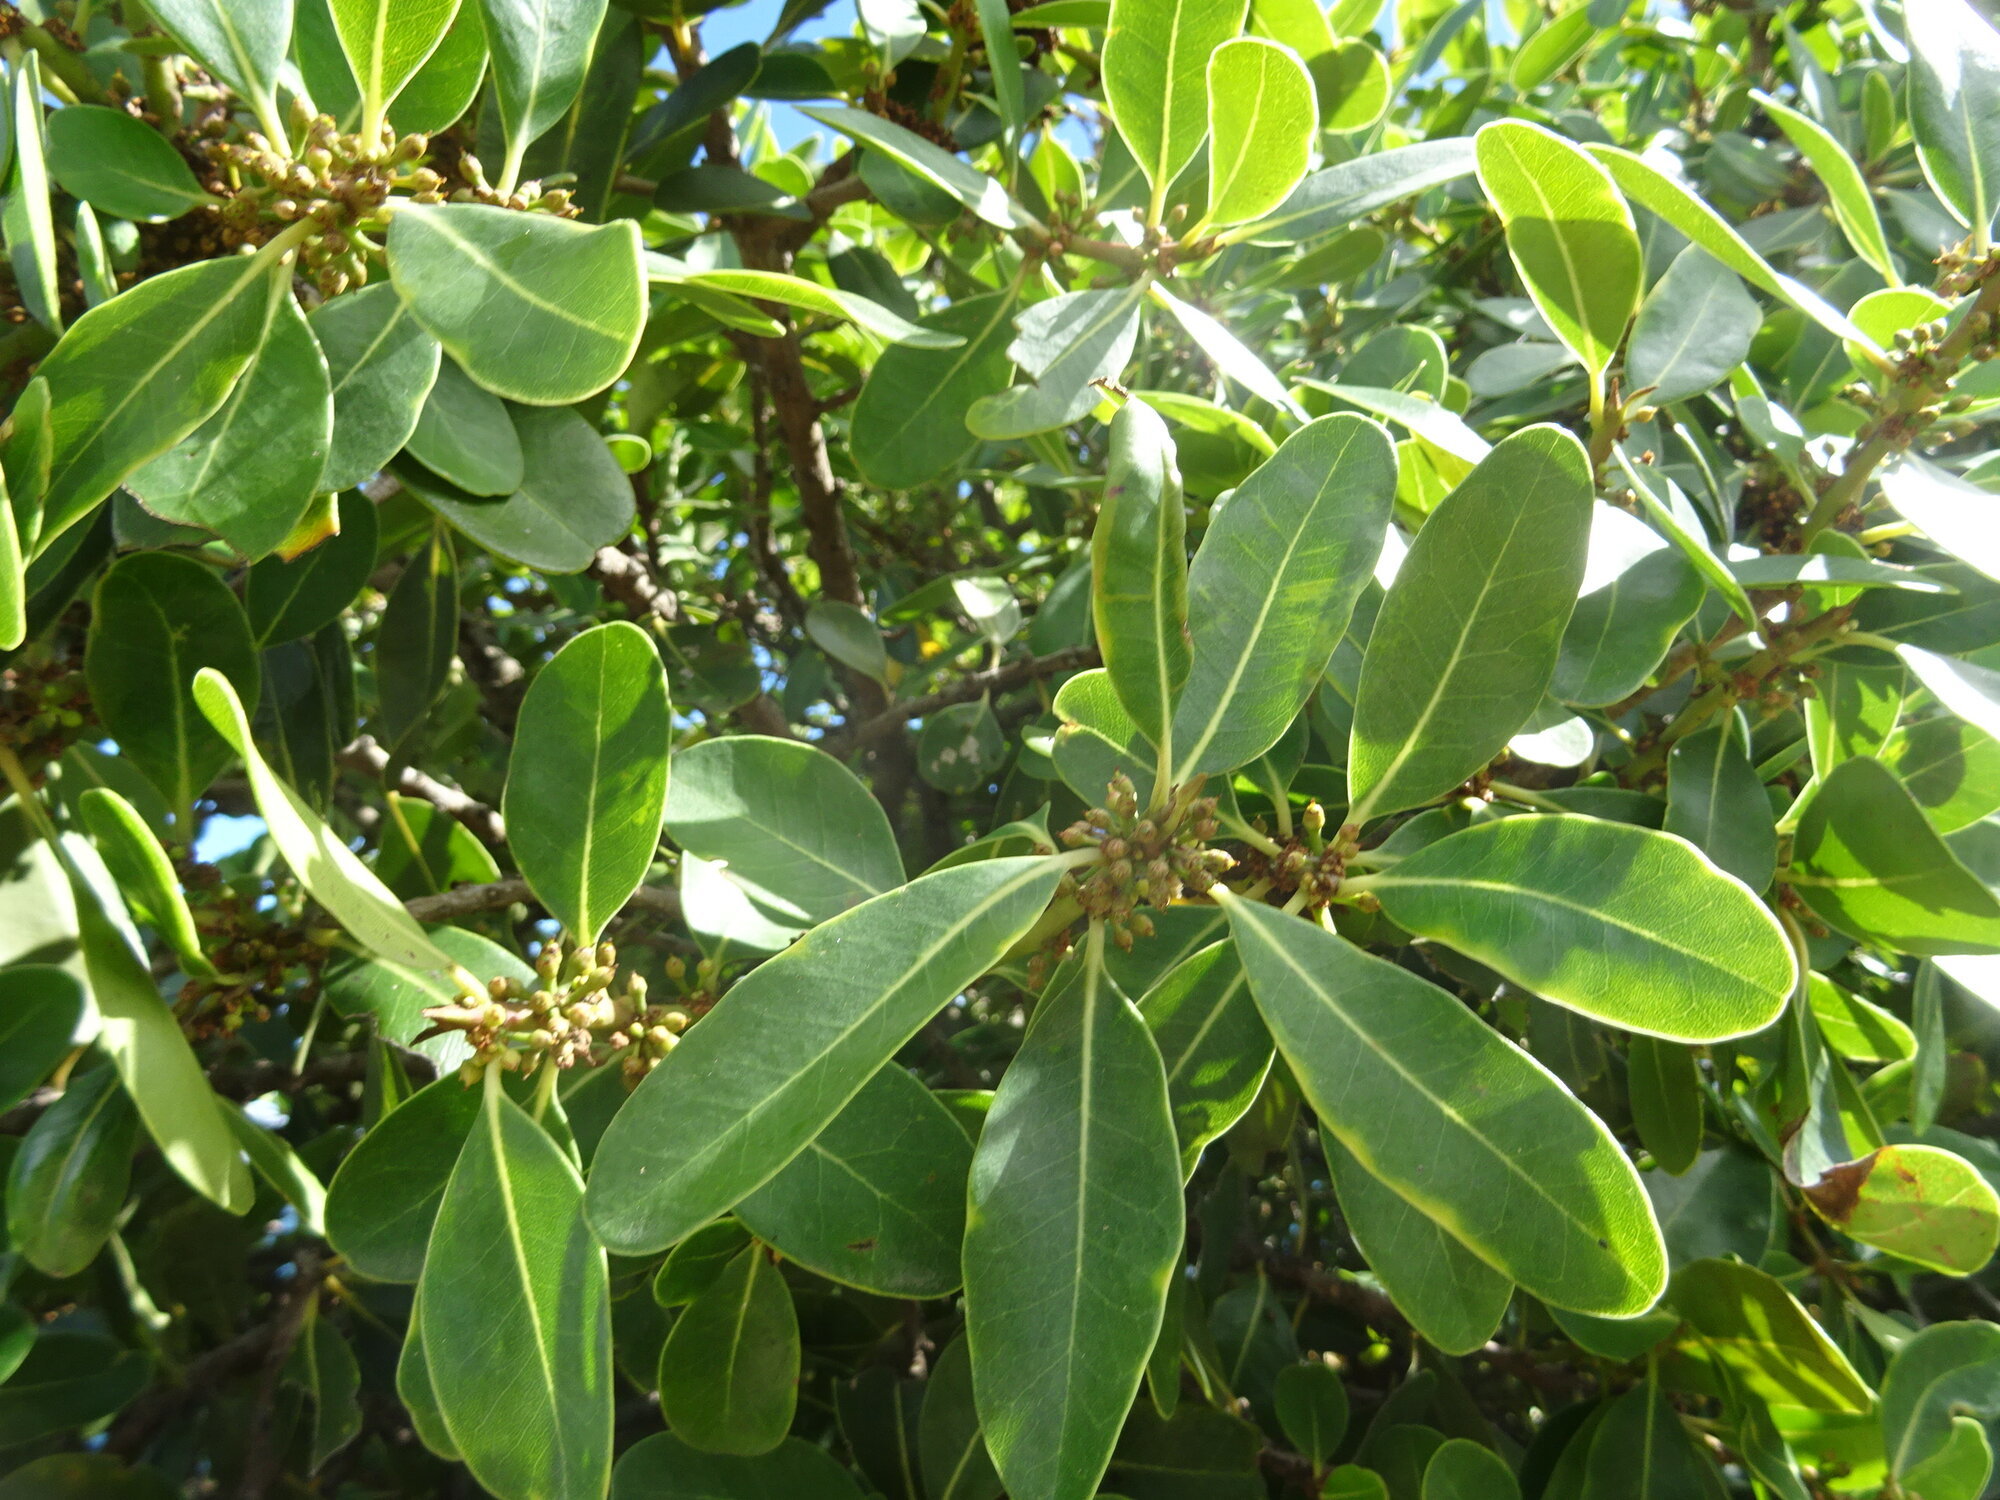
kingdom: Plantae
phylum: Tracheophyta
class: Magnoliopsida
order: Ericales
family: Sapotaceae
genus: Sideroxylon
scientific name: Sideroxylon inerme
